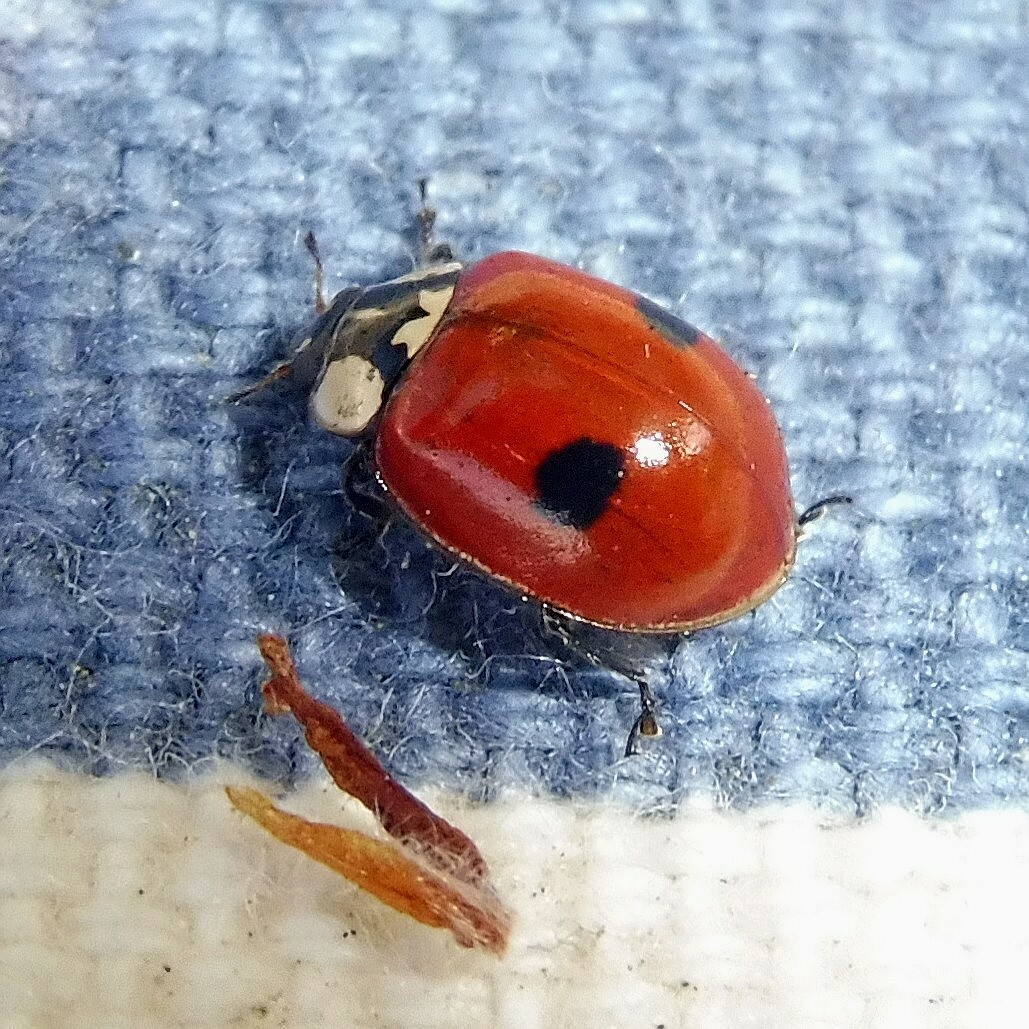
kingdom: Animalia
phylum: Arthropoda
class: Insecta
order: Coleoptera
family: Coccinellidae
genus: Adalia
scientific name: Adalia bipunctata
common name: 2-spot ladybird
